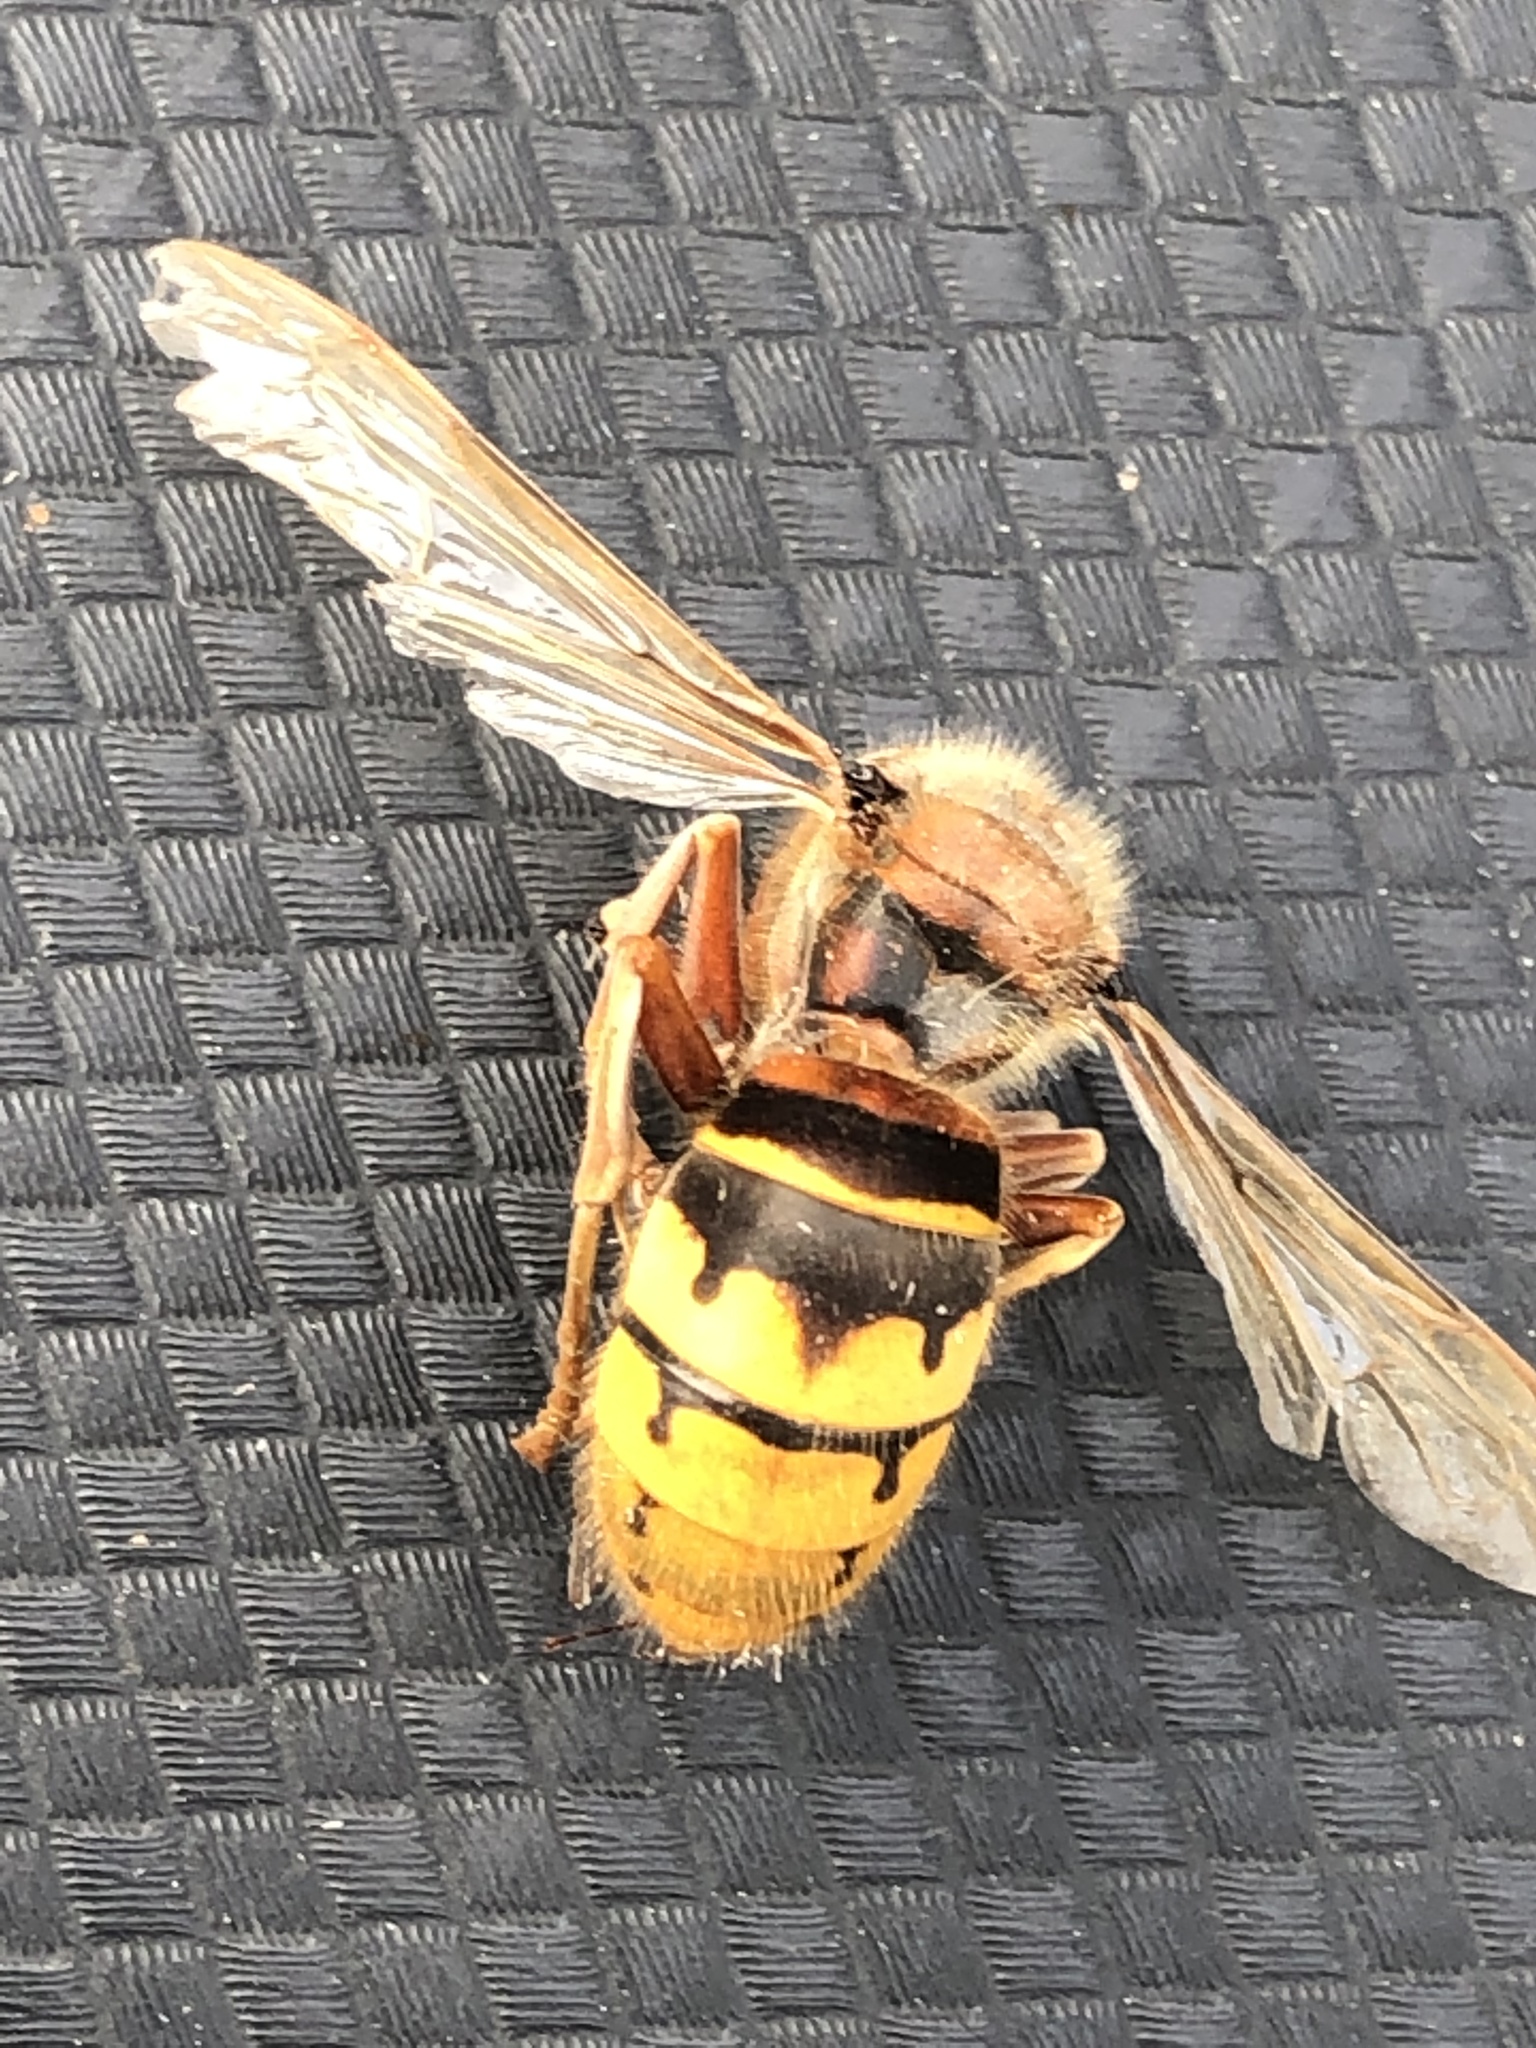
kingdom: Animalia
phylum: Arthropoda
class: Insecta
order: Hymenoptera
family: Vespidae
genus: Vespa
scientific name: Vespa crabro
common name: Hornet
